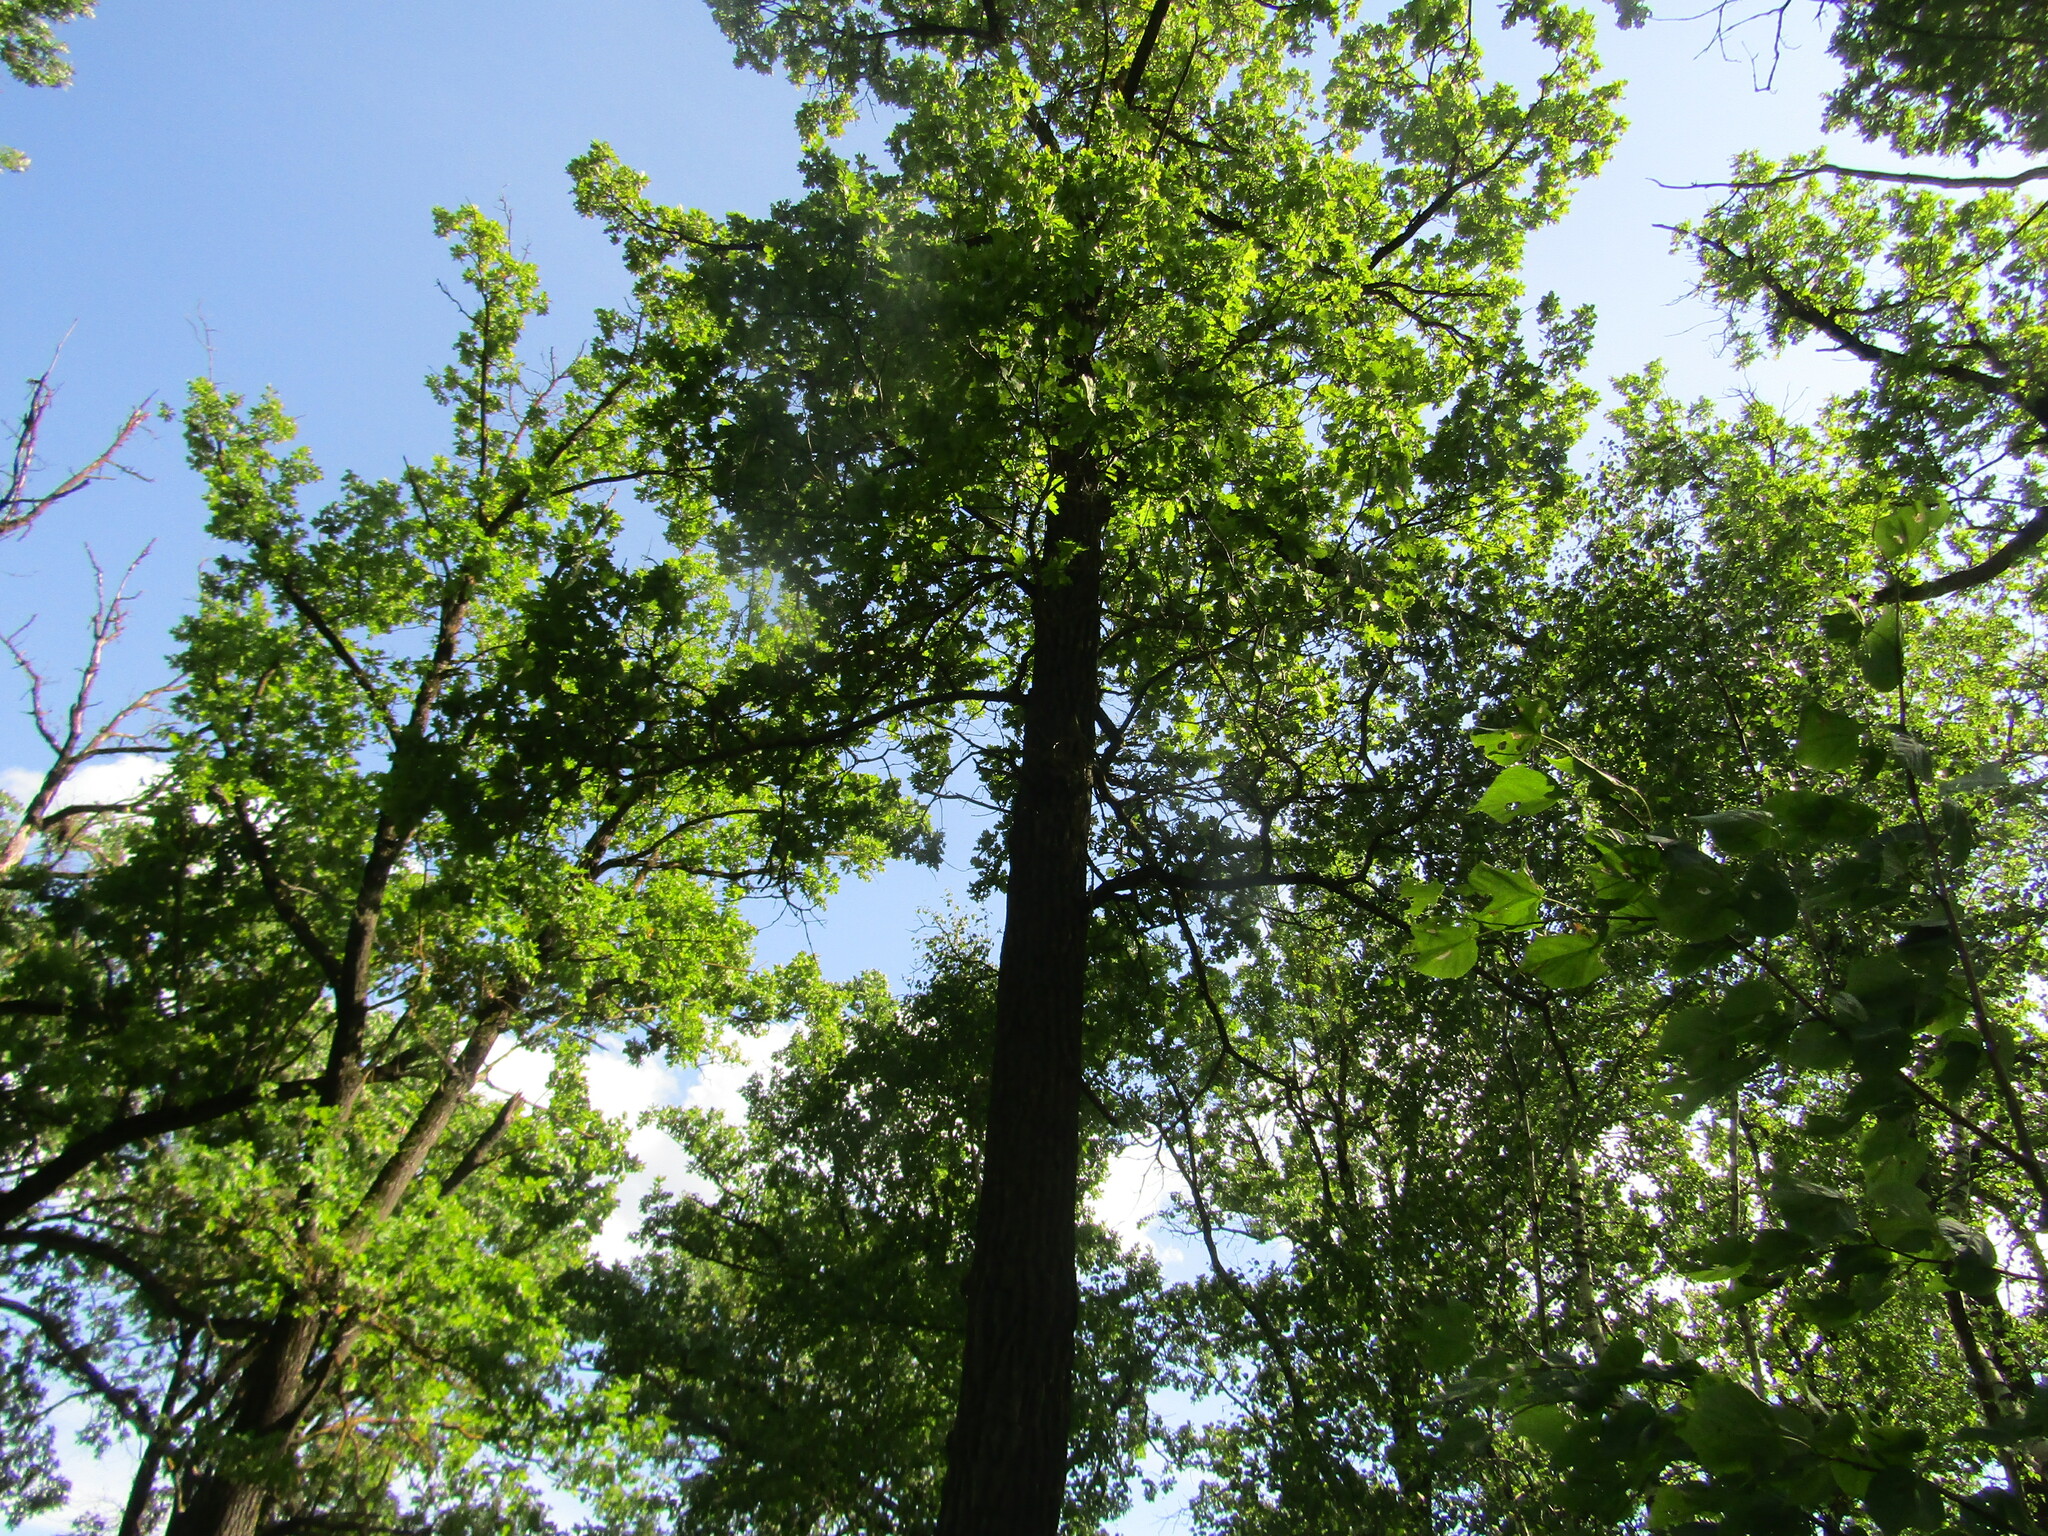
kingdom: Plantae
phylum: Tracheophyta
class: Magnoliopsida
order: Fagales
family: Fagaceae
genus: Quercus
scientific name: Quercus robur
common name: Pedunculate oak
